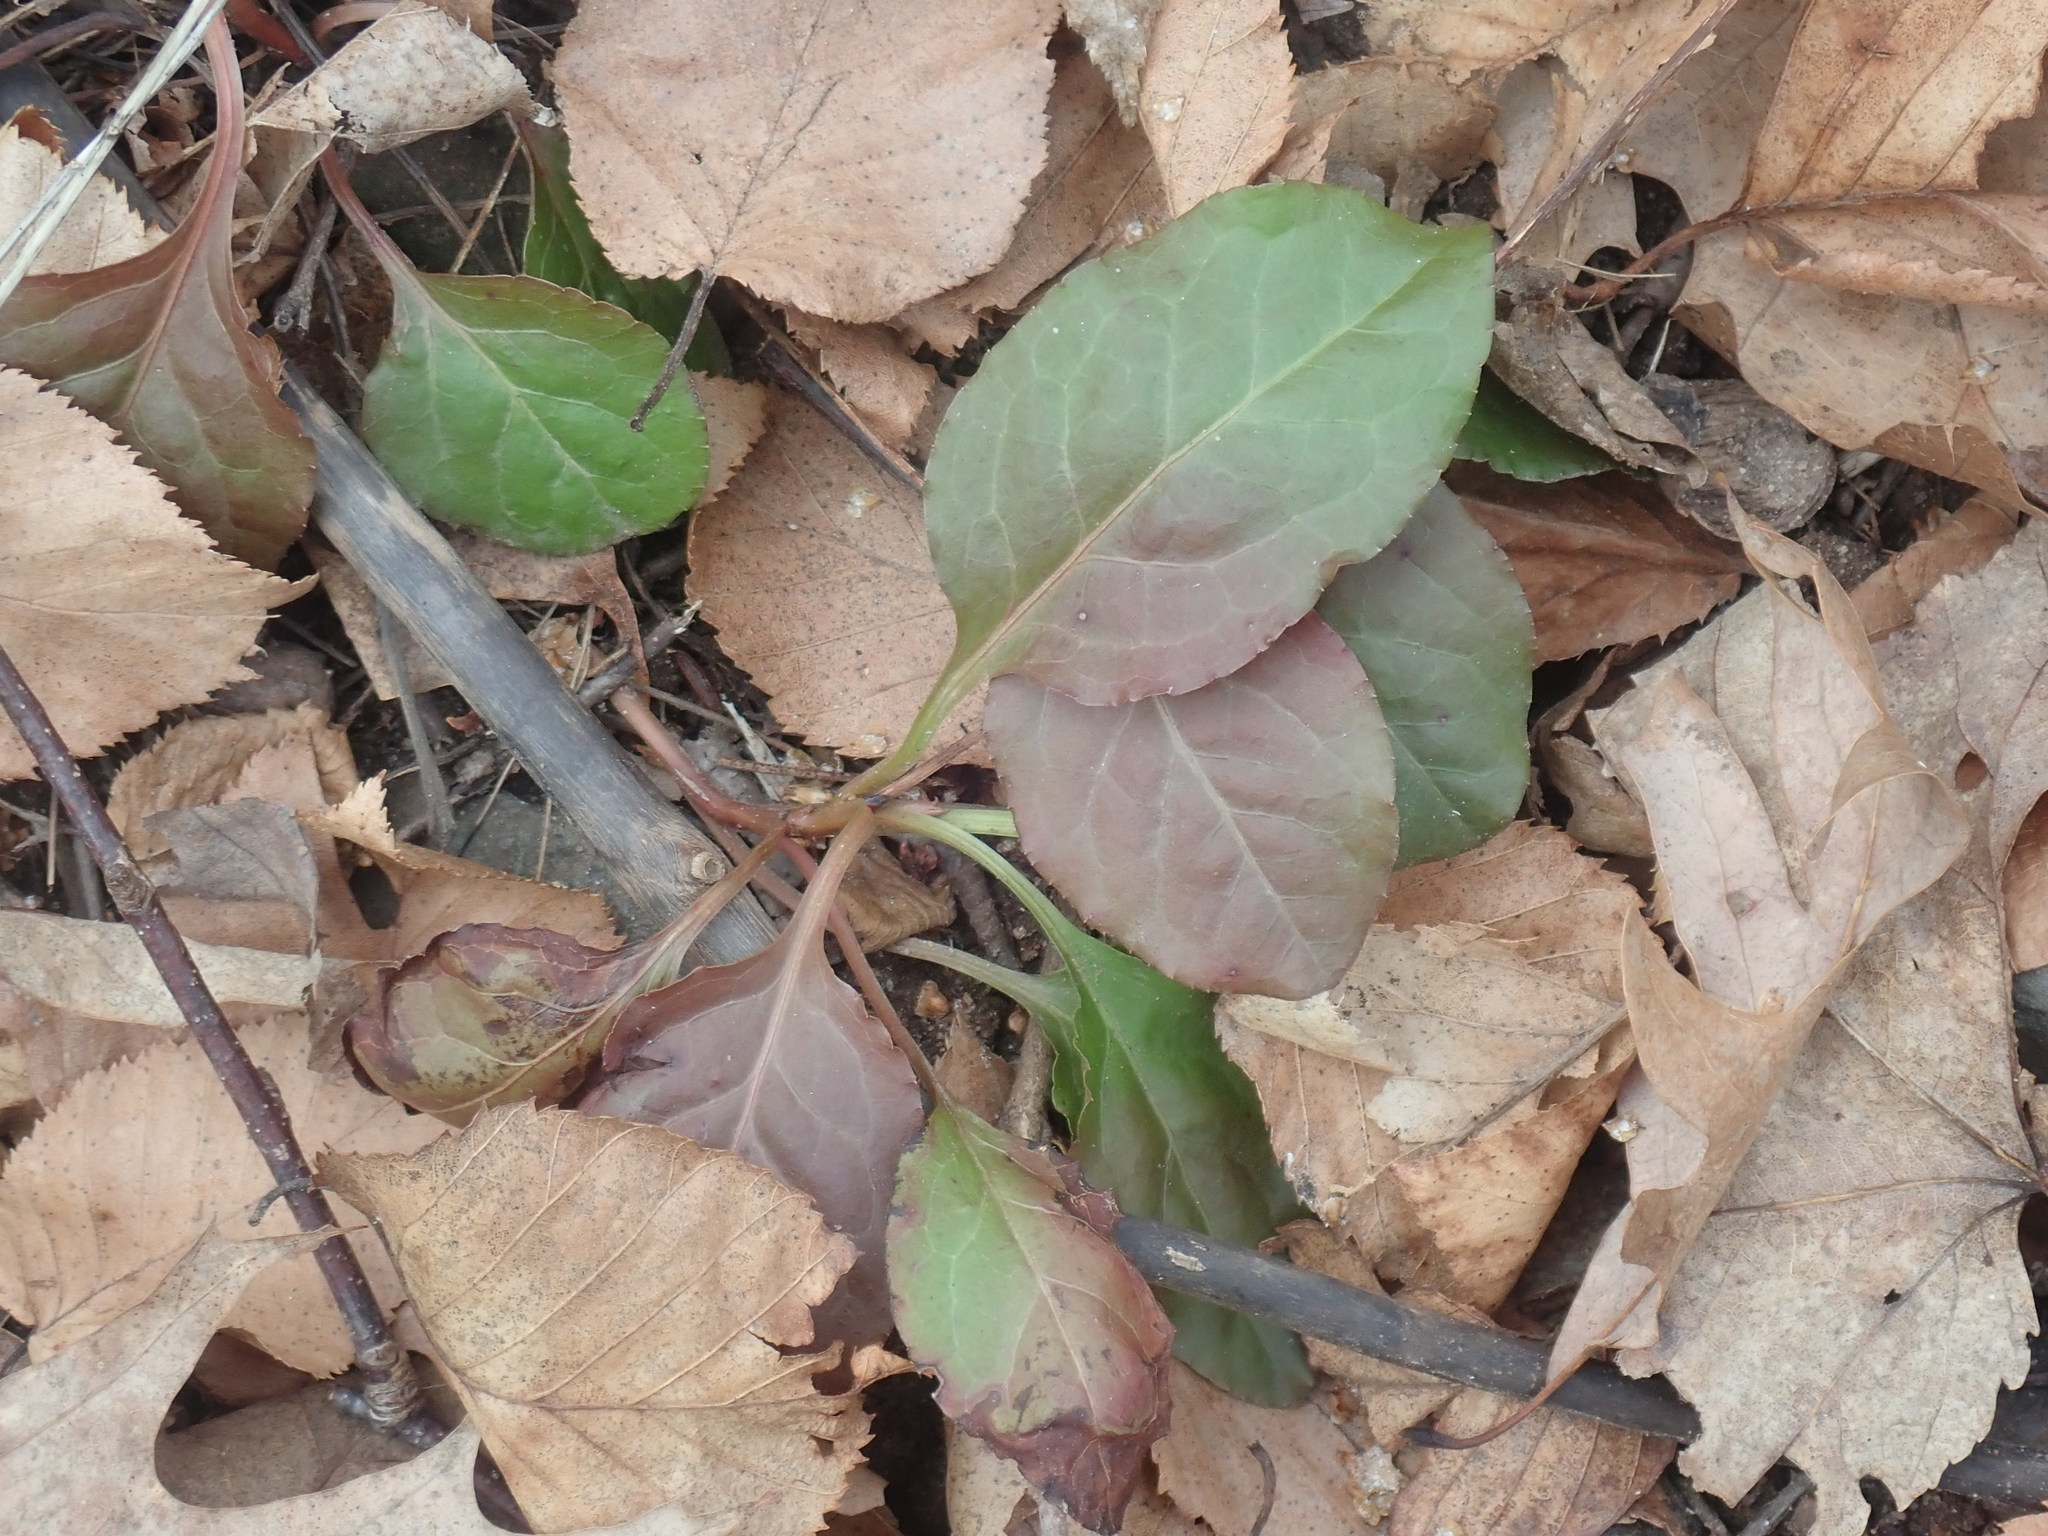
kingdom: Plantae
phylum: Tracheophyta
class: Magnoliopsida
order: Ericales
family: Ericaceae
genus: Pyrola
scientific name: Pyrola elliptica
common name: Shinleaf
